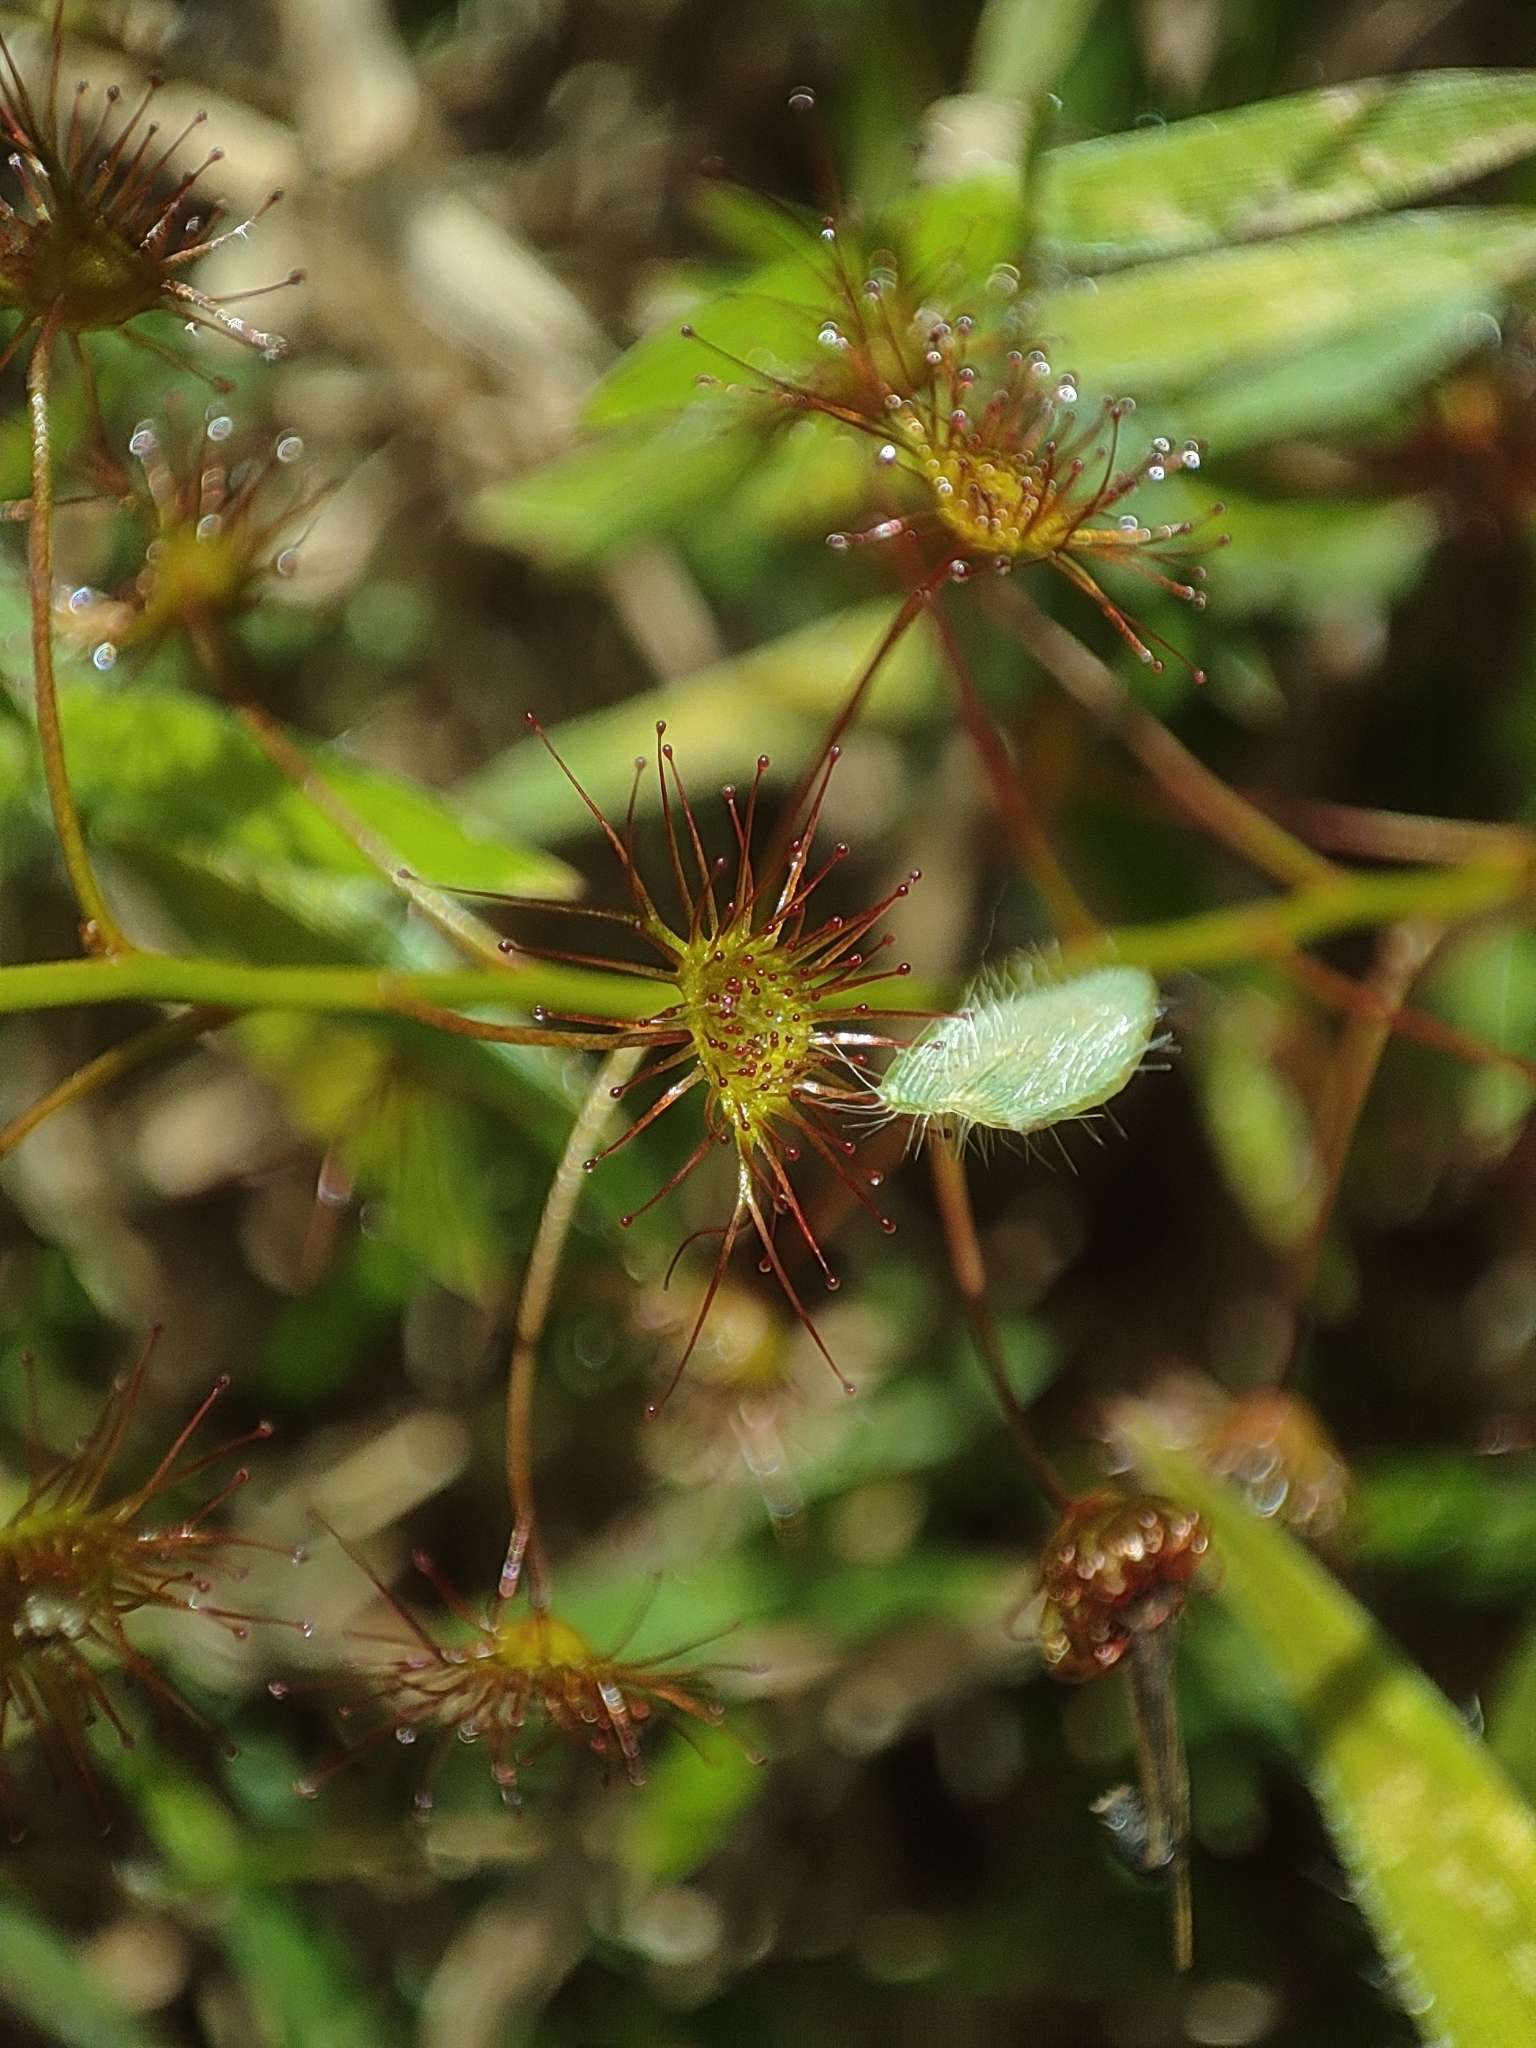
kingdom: Plantae
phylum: Tracheophyta
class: Magnoliopsida
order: Caryophyllales
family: Droseraceae
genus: Drosera
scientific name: Drosera peltata
